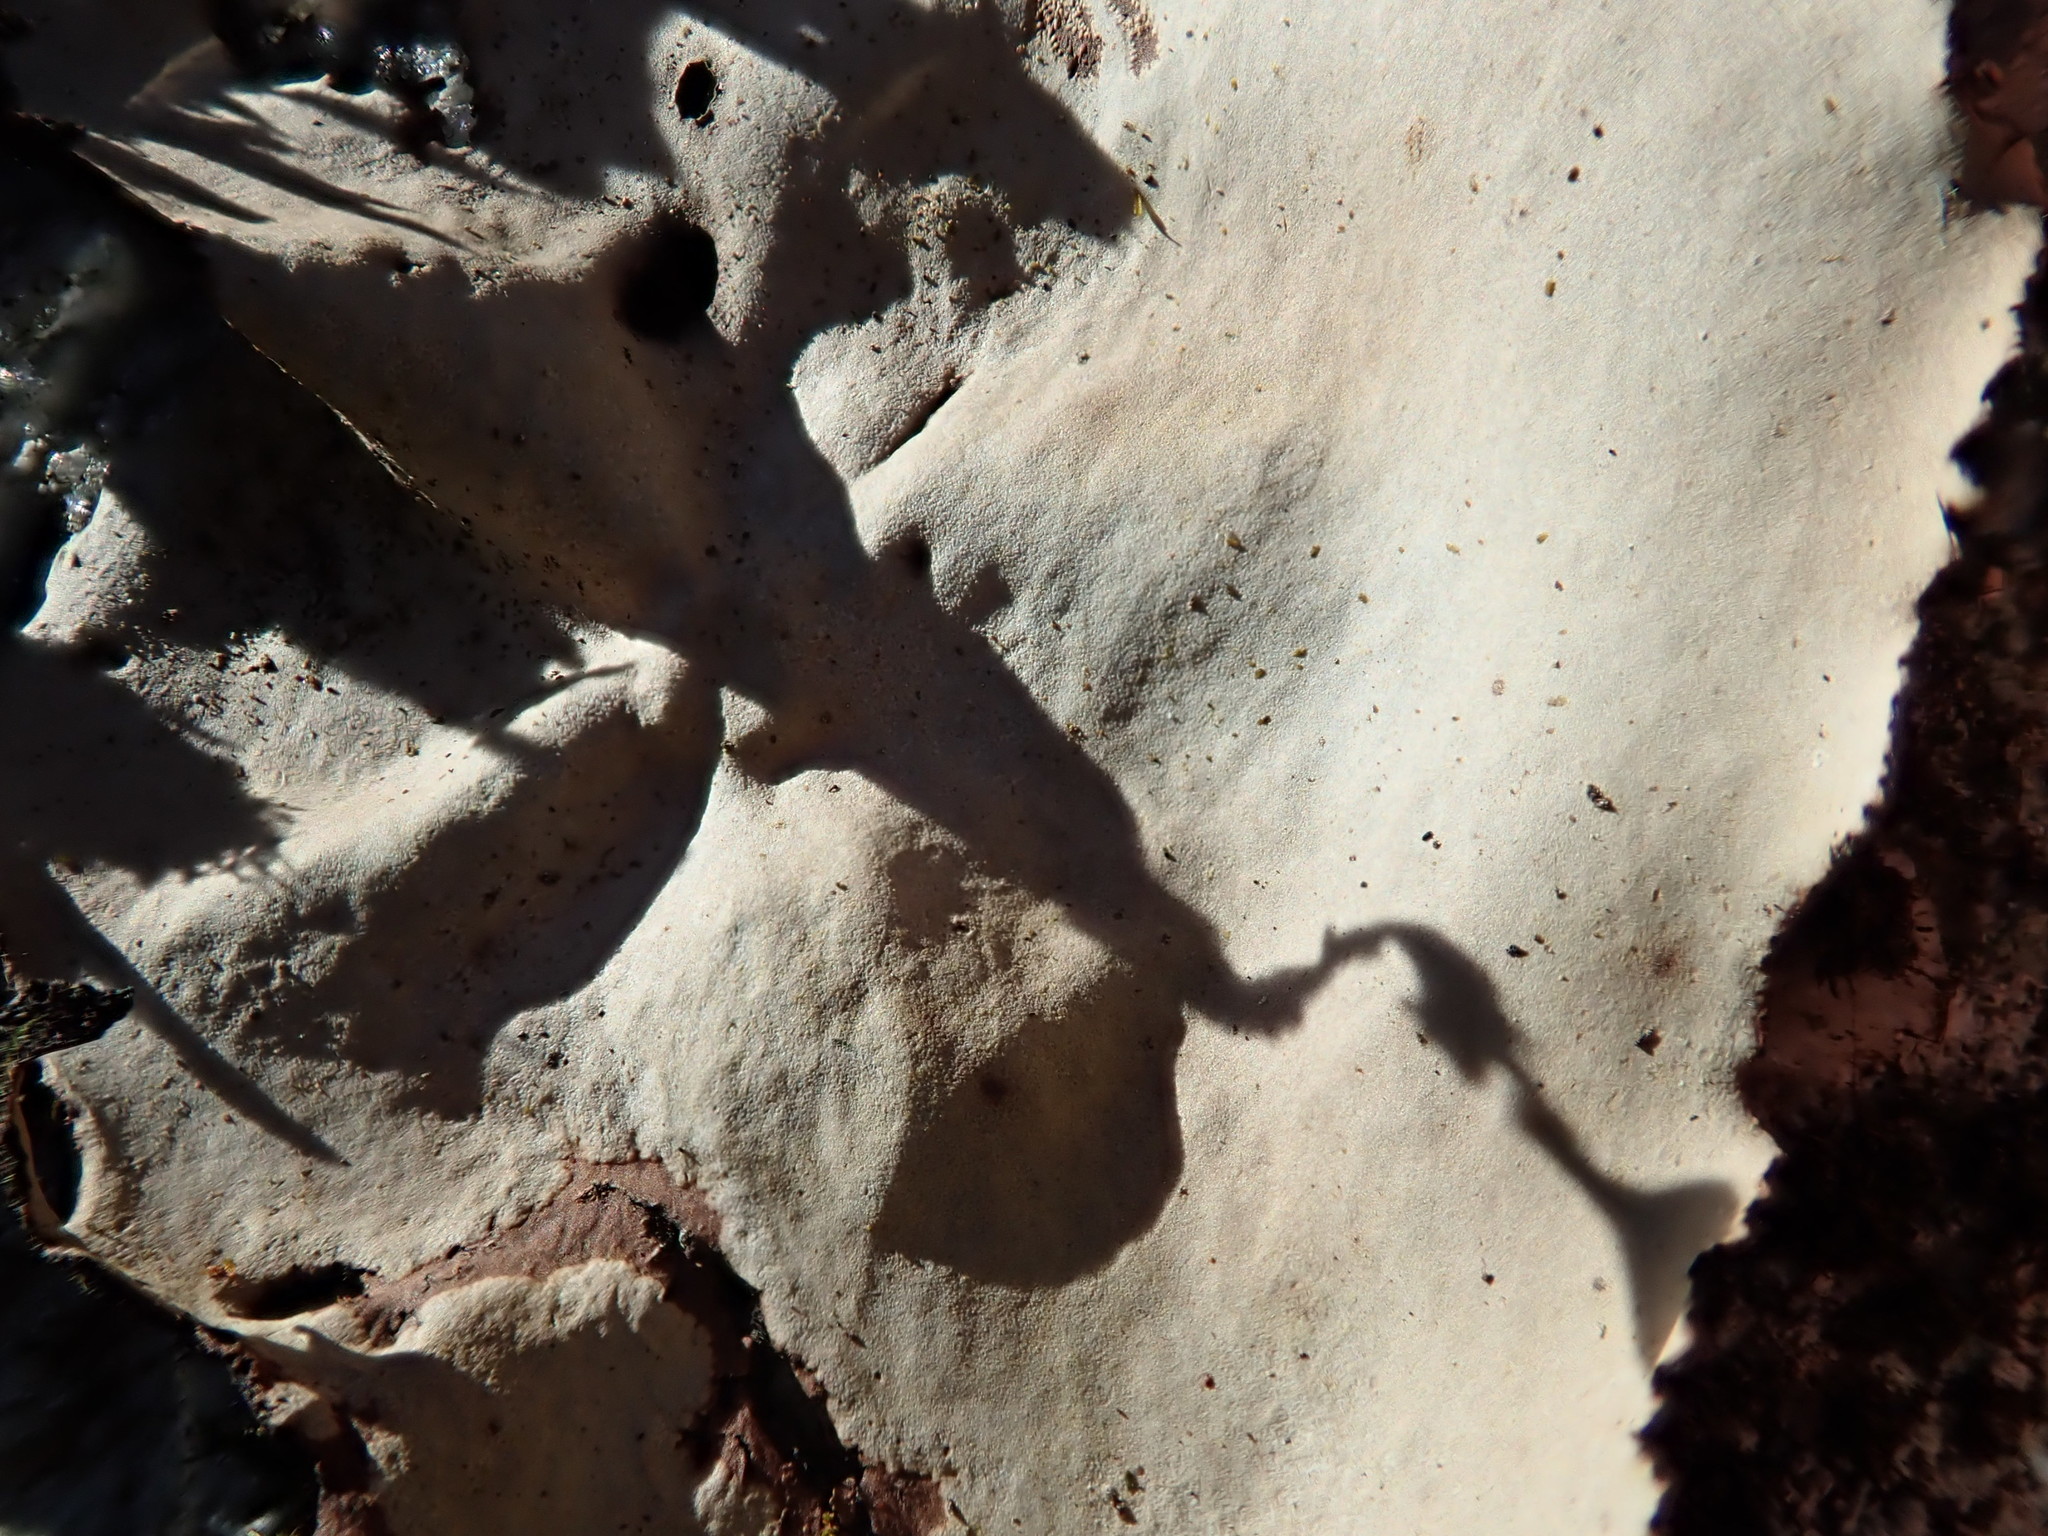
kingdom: Fungi
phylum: Ascomycota
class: Lecanoromycetes
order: Umbilicariales
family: Umbilicariaceae
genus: Umbilicaria
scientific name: Umbilicaria mammulata
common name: Smooth rock tripe
